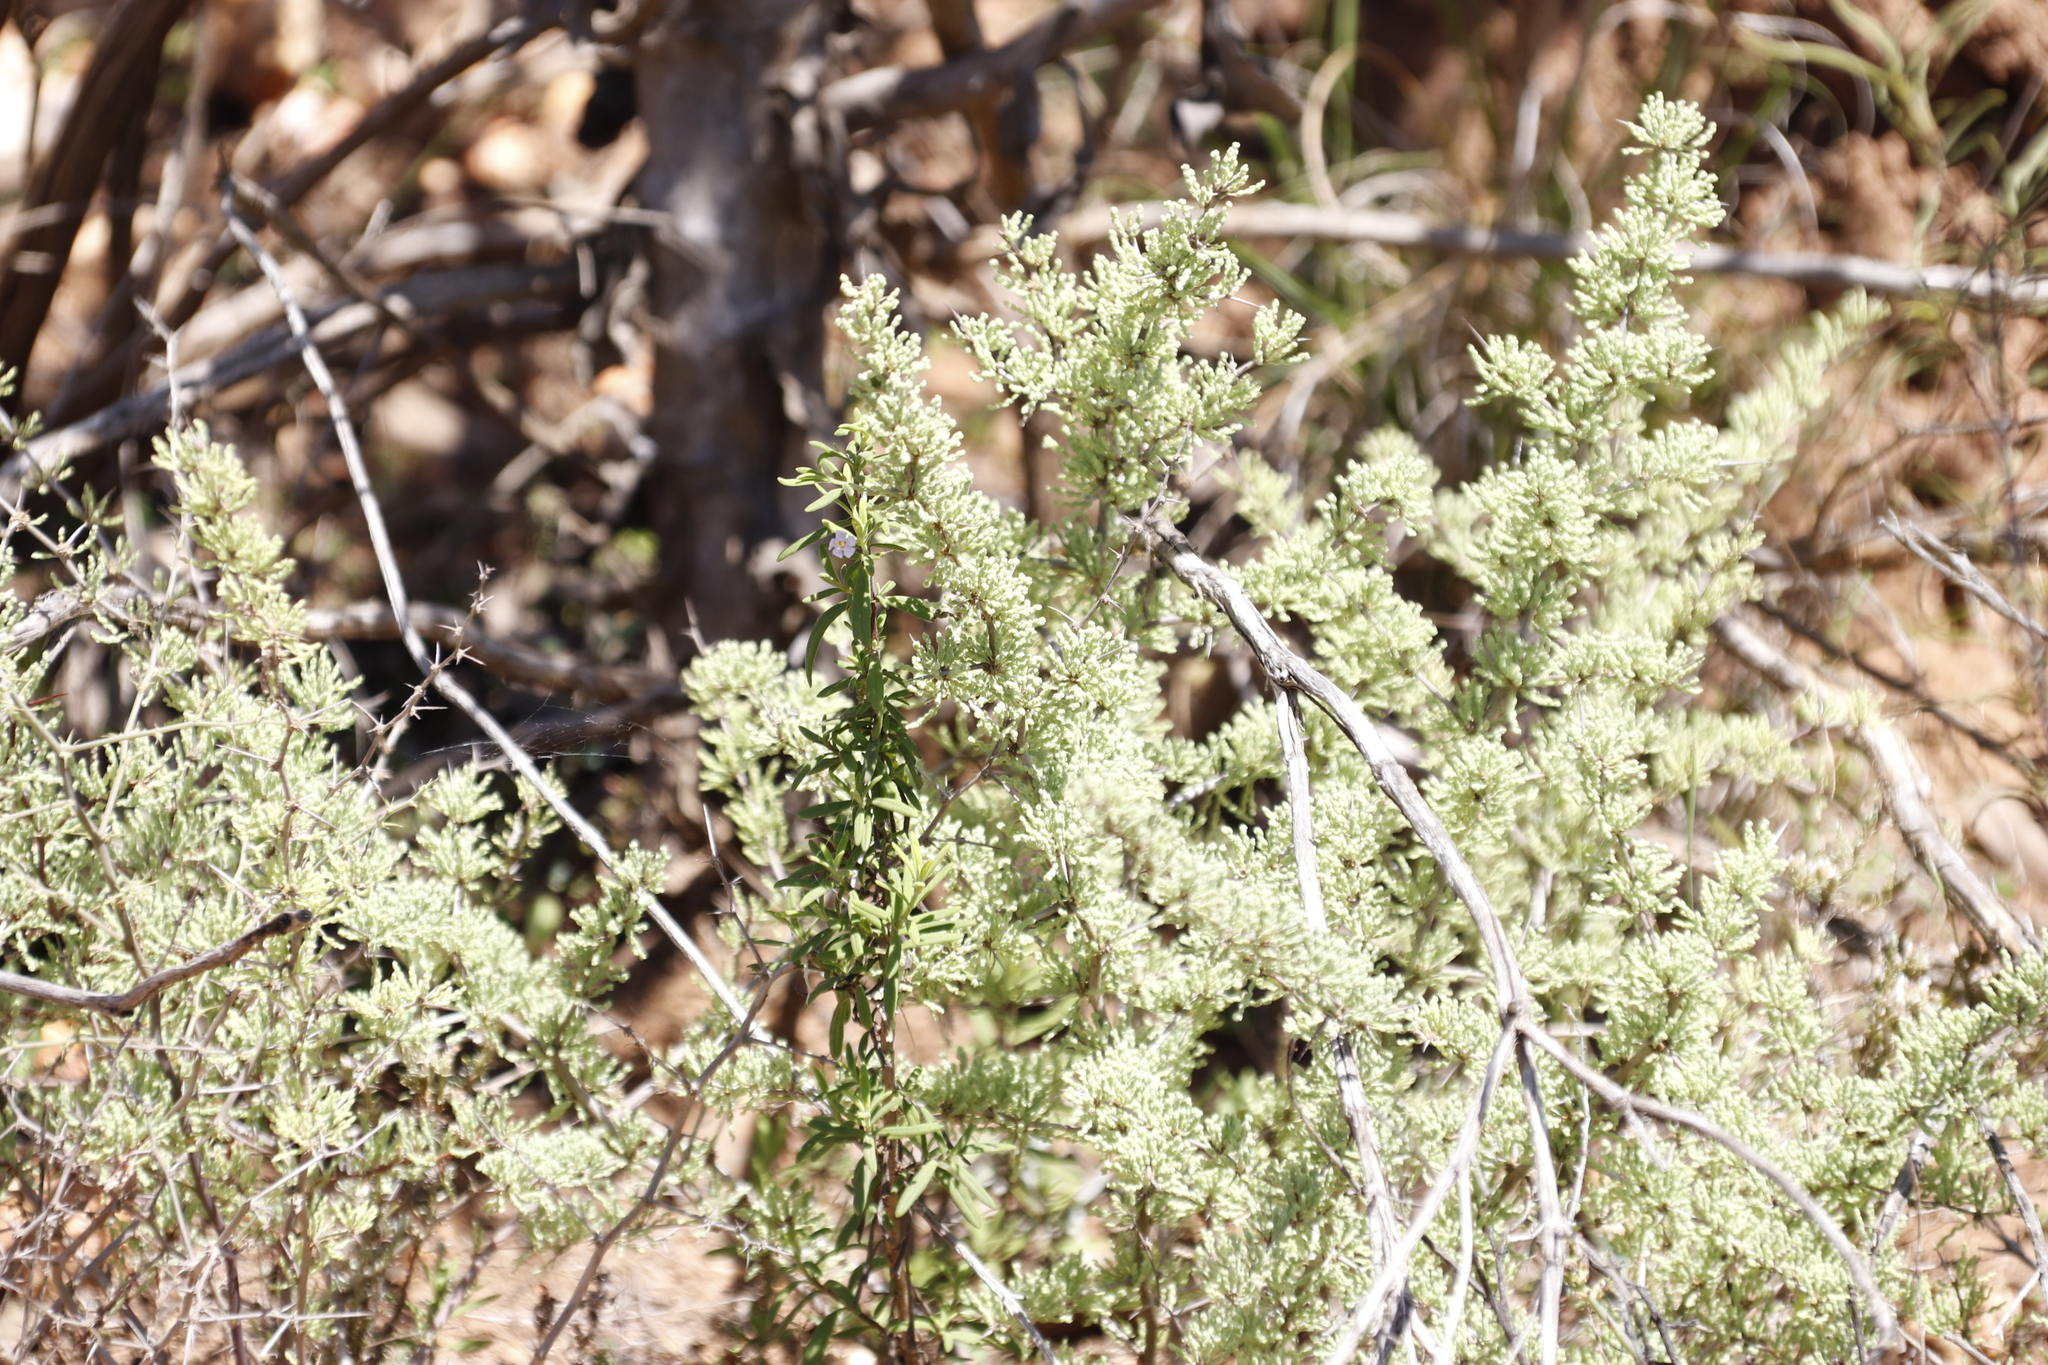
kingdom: Plantae
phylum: Tracheophyta
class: Liliopsida
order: Asparagales
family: Asparagaceae
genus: Asparagus
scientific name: Asparagus capensis
